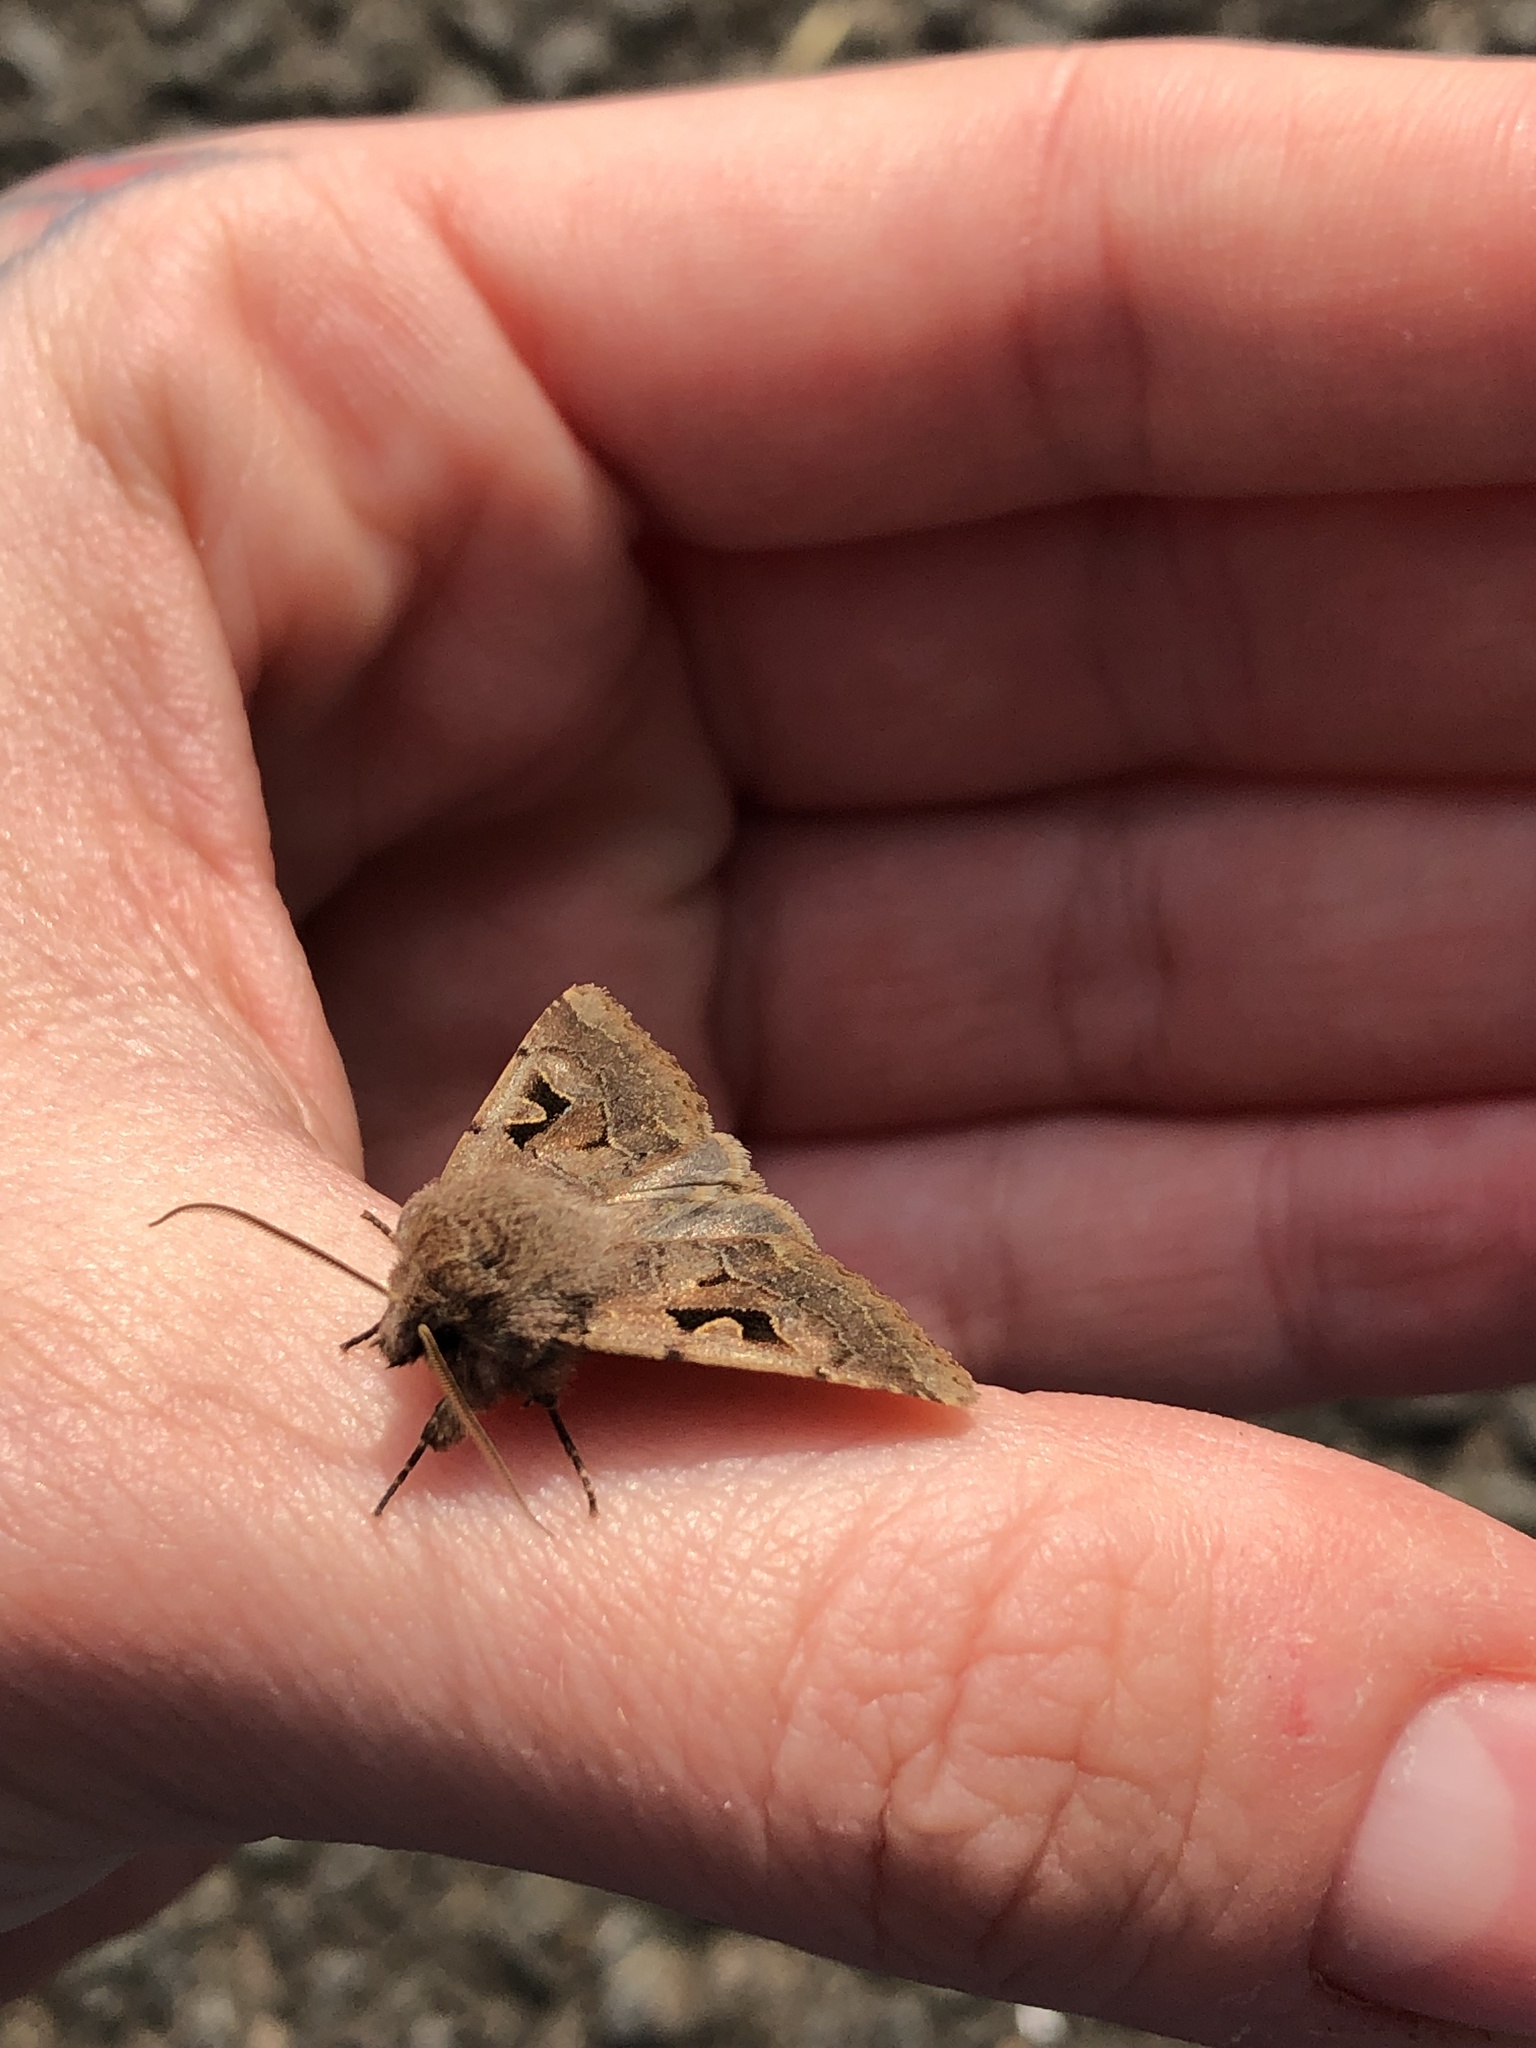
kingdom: Animalia
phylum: Arthropoda
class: Insecta
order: Lepidoptera
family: Noctuidae
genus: Orthosia
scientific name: Orthosia gothica
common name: Hebrew character
